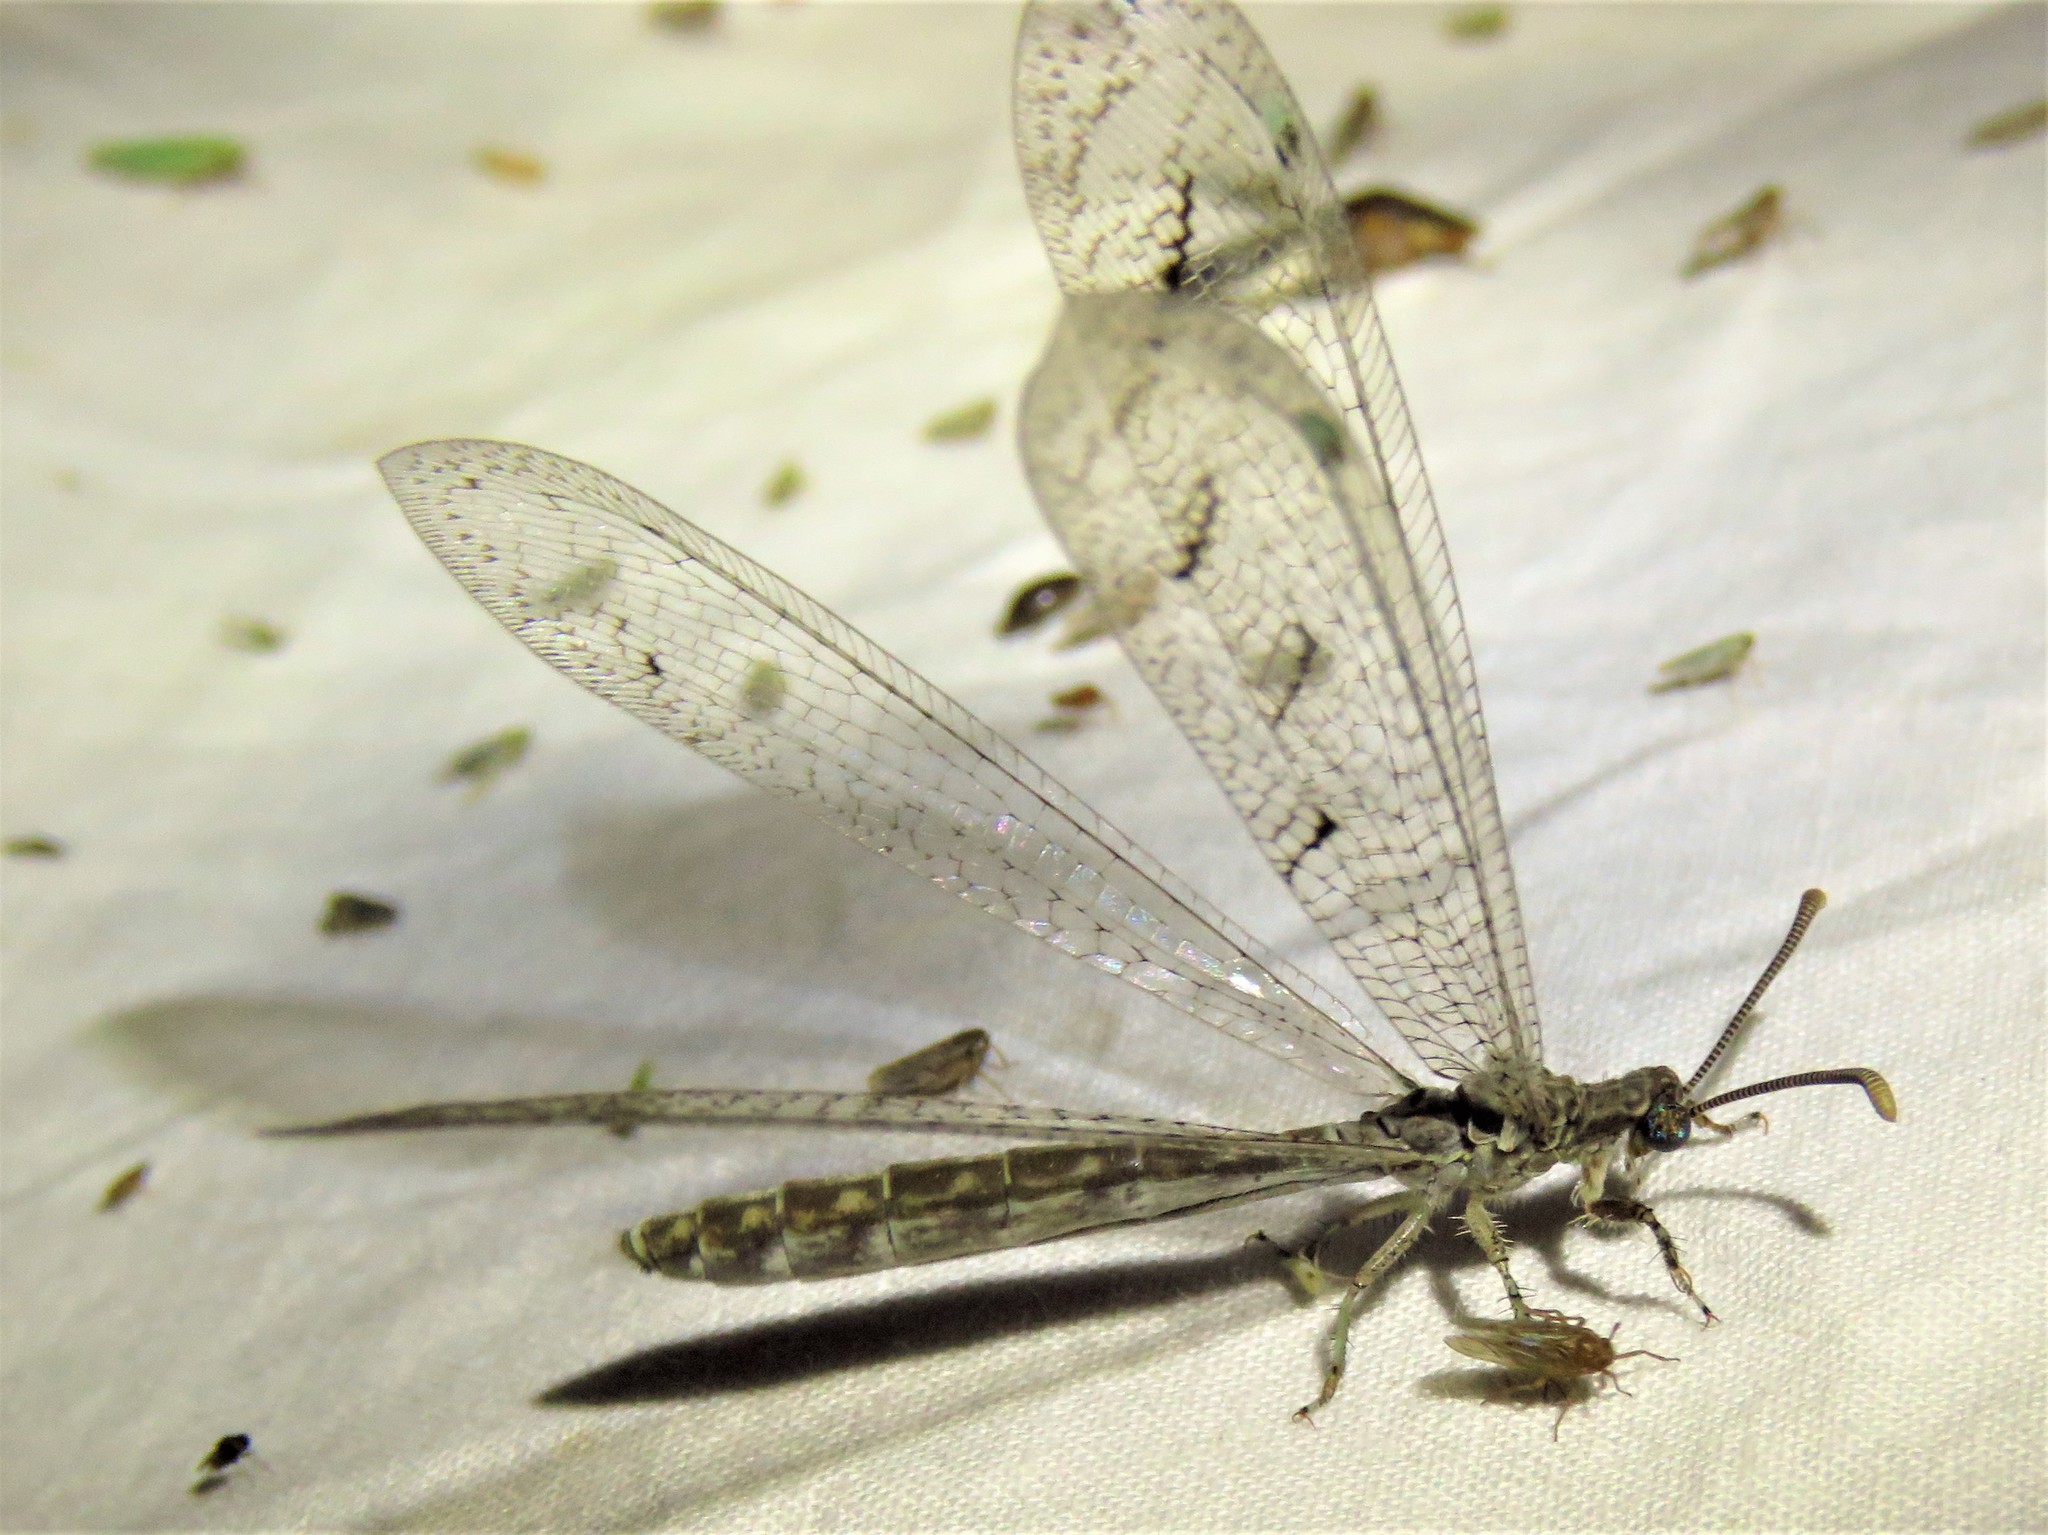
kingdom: Animalia
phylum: Arthropoda
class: Insecta
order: Neuroptera
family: Myrmeleontidae
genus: Euptilon
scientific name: Euptilon ornatum
